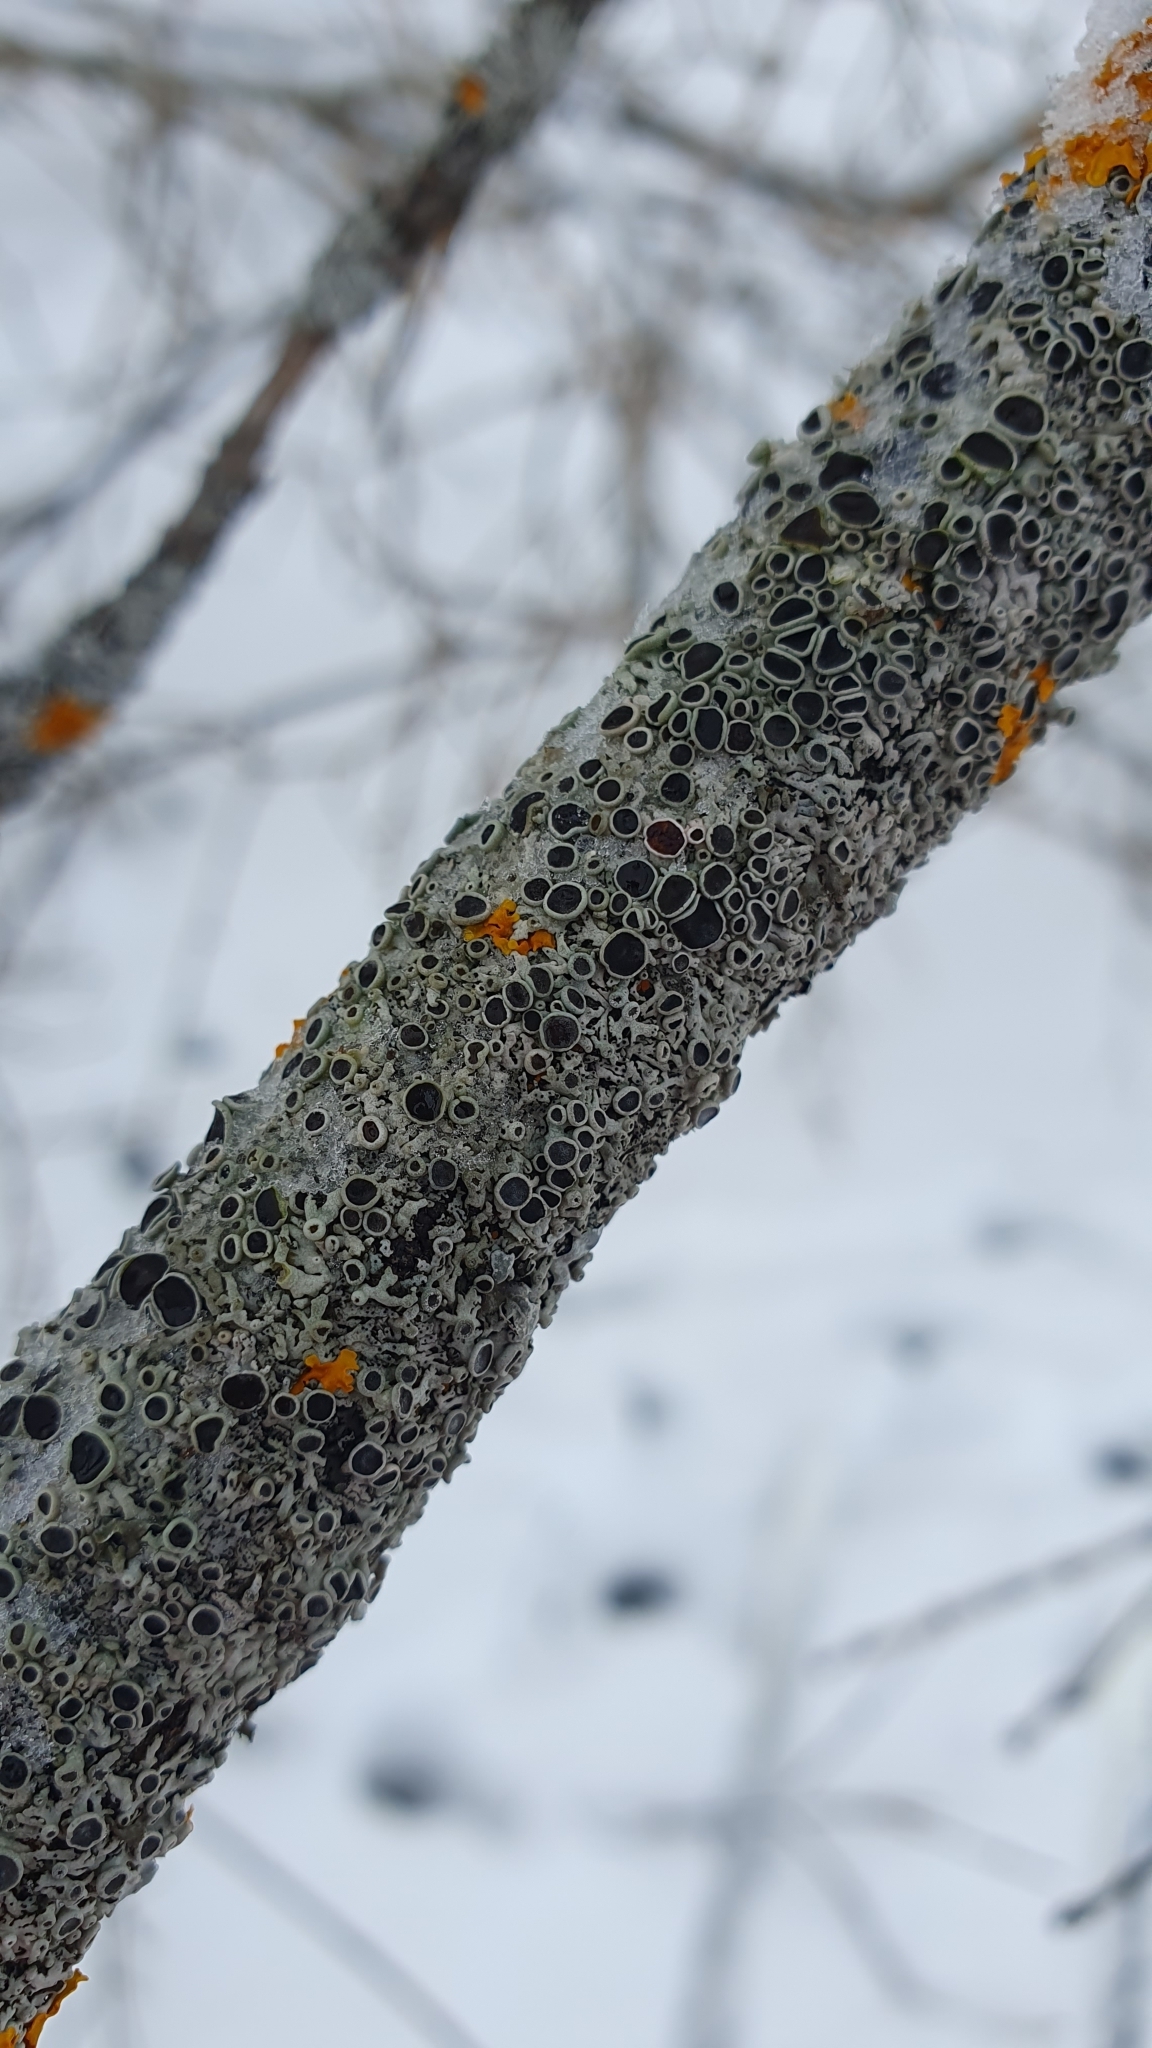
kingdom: Fungi
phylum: Ascomycota
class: Lecanoromycetes
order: Caliciales
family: Physciaceae
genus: Physcia
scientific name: Physcia stellaris
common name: Star rosette lichen
